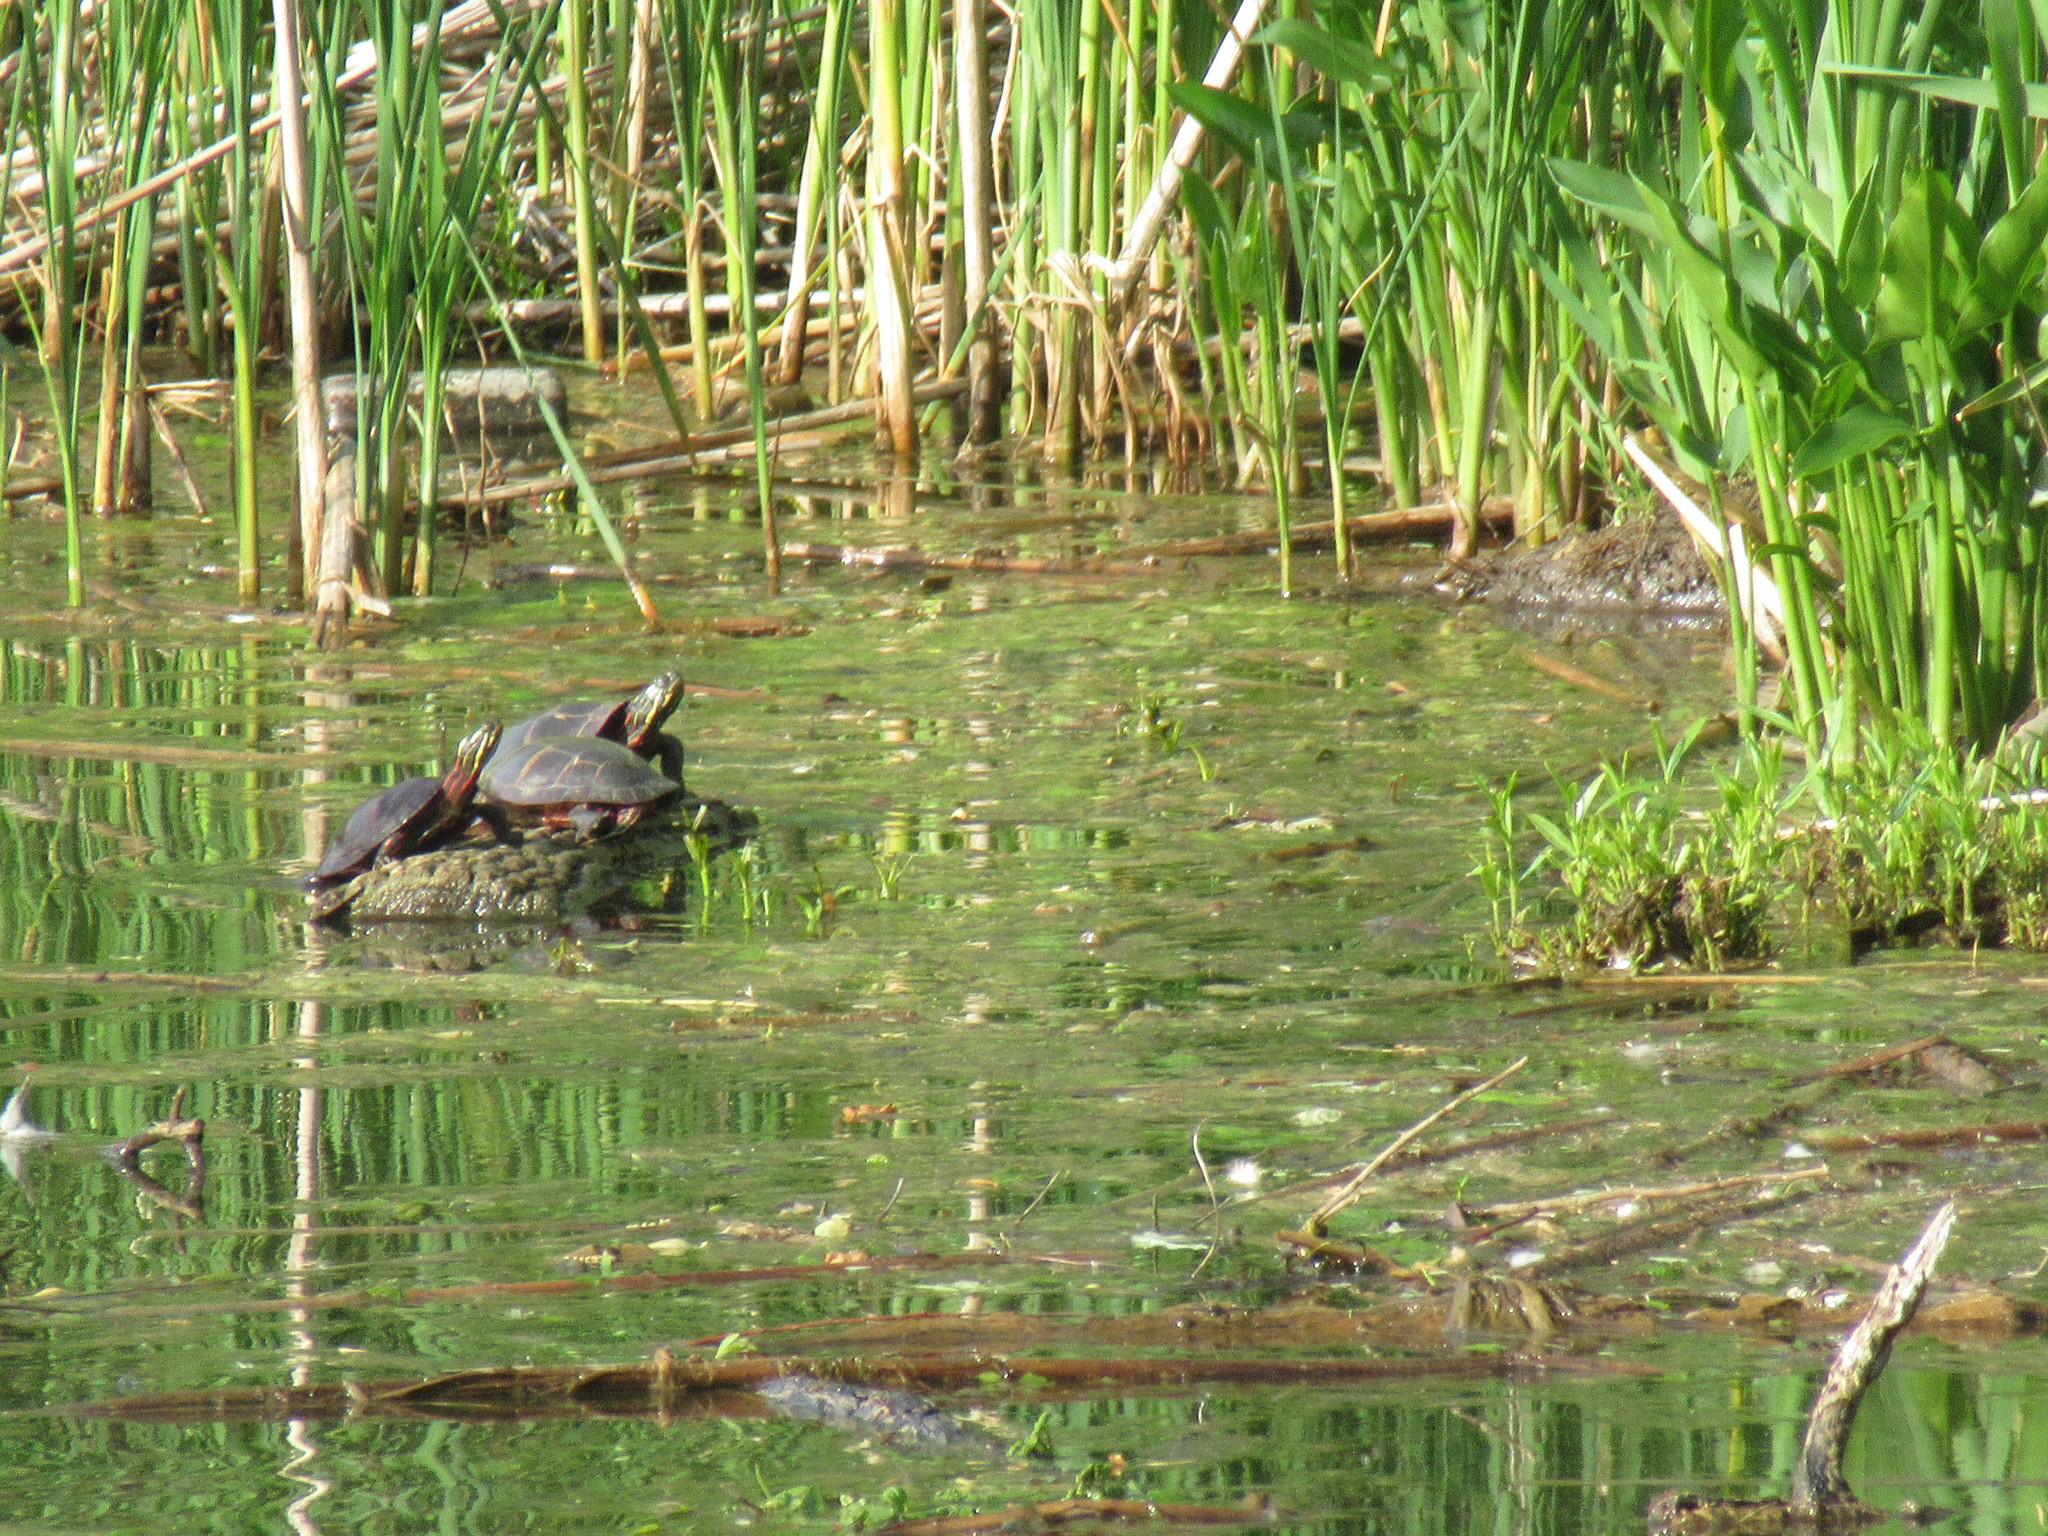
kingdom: Animalia
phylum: Chordata
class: Testudines
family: Emydidae
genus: Chrysemys
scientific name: Chrysemys picta
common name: Painted turtle
